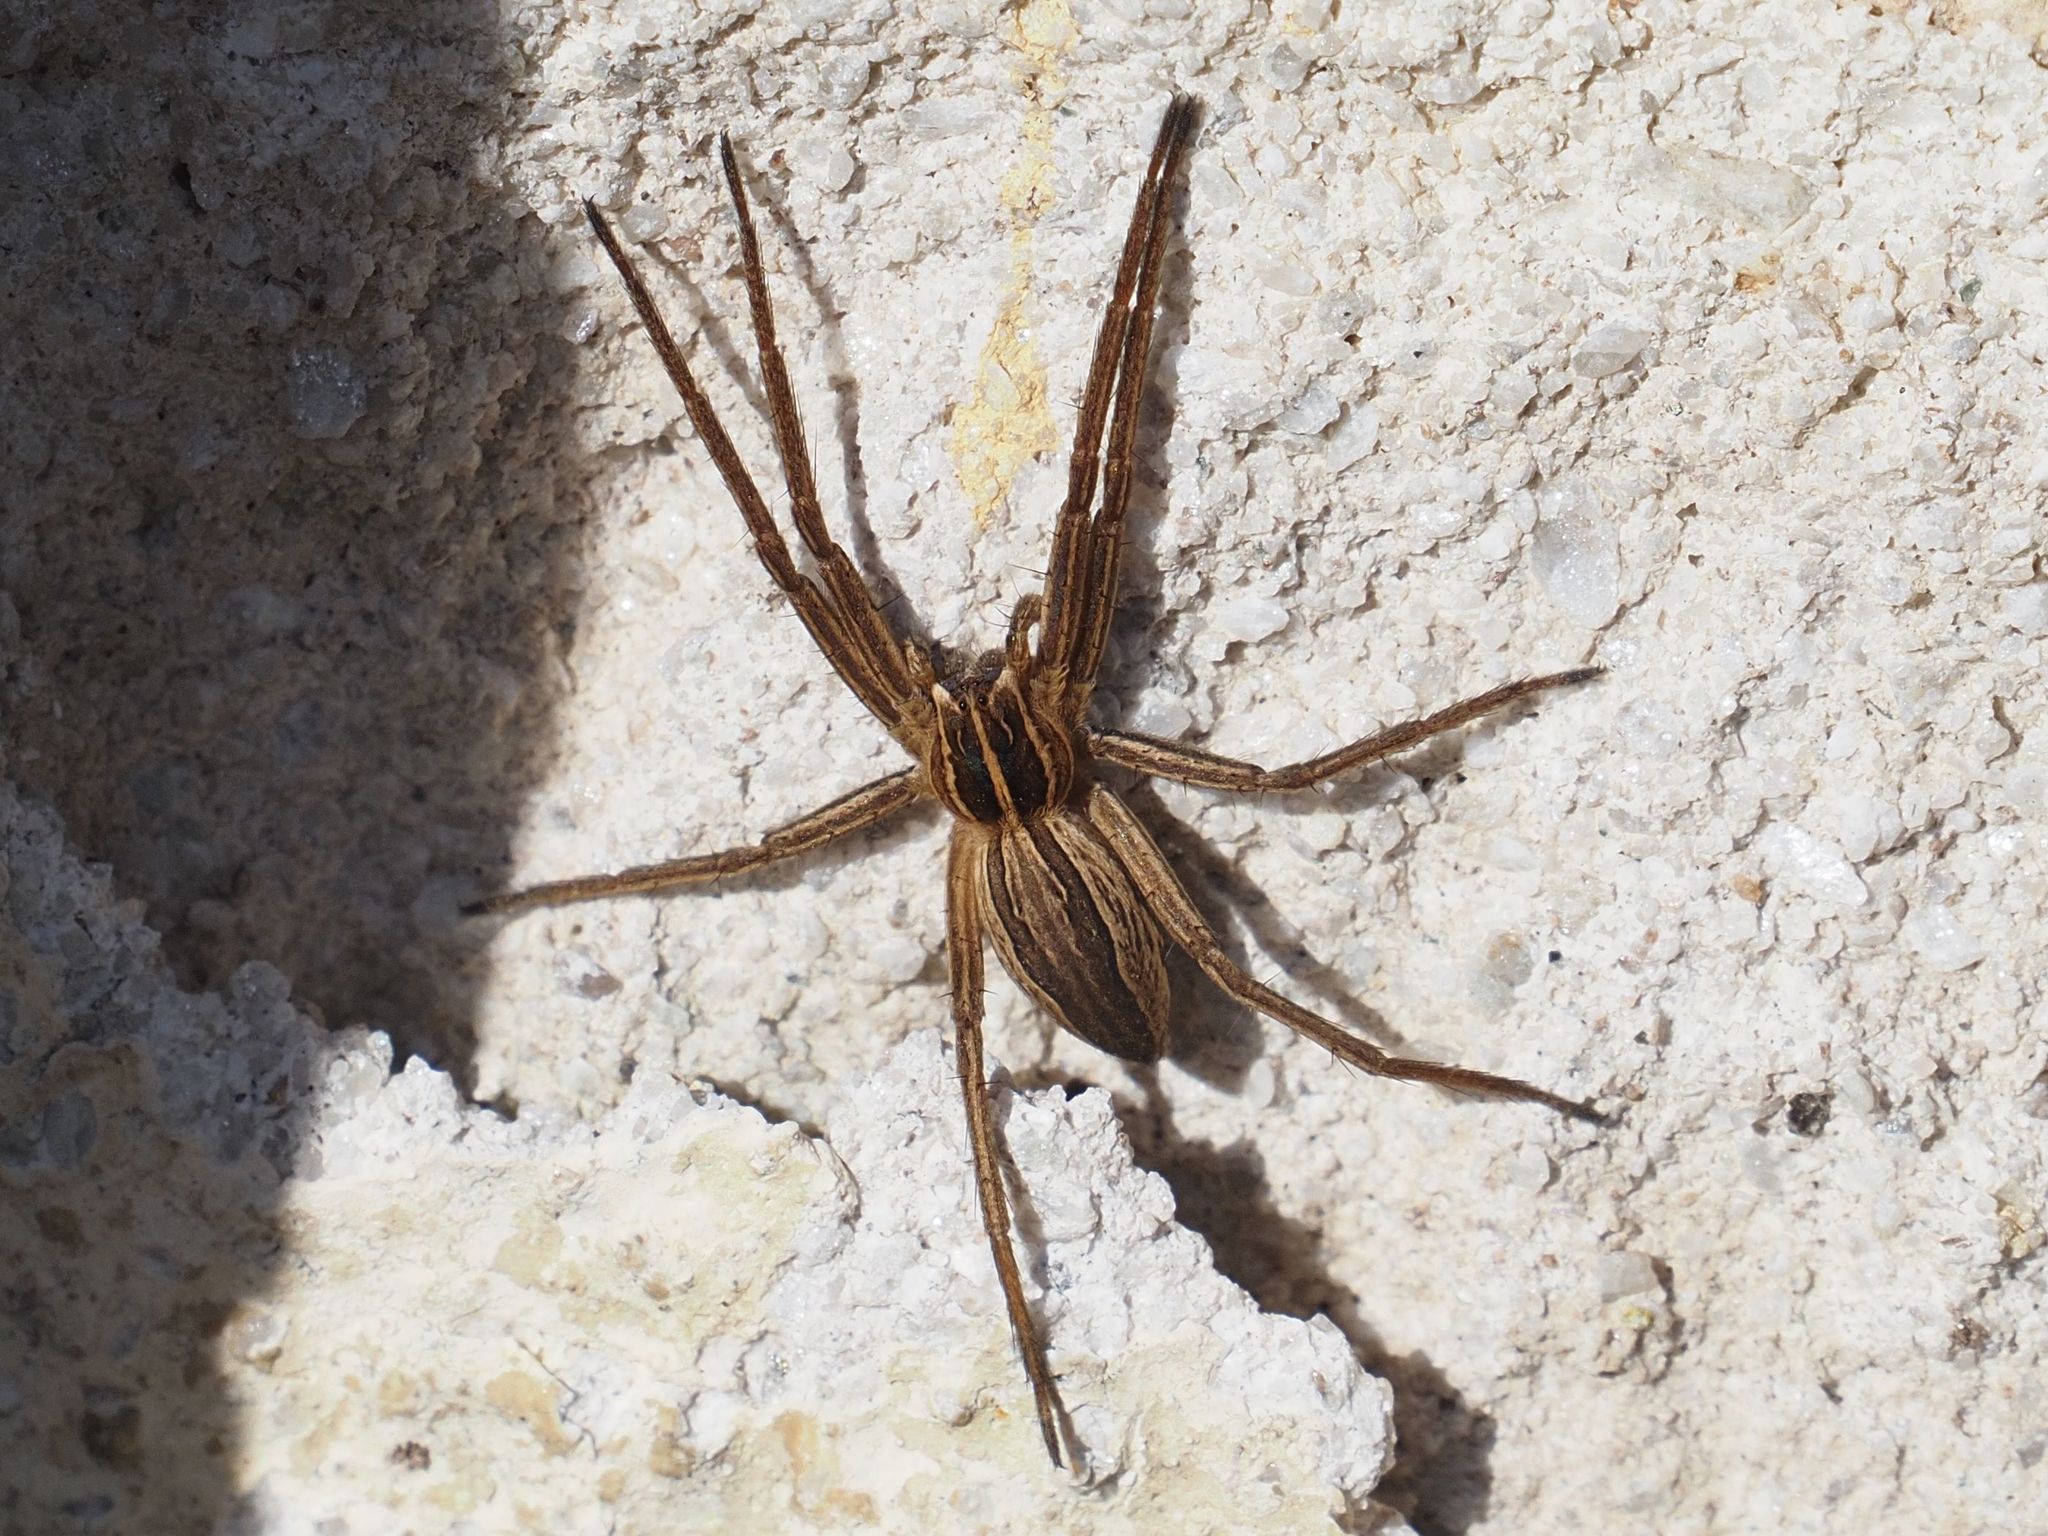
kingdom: Animalia
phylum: Arthropoda
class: Arachnida
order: Araneae
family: Pisauridae
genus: Pisaura
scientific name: Pisaura mirabilis
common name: Tent spider
